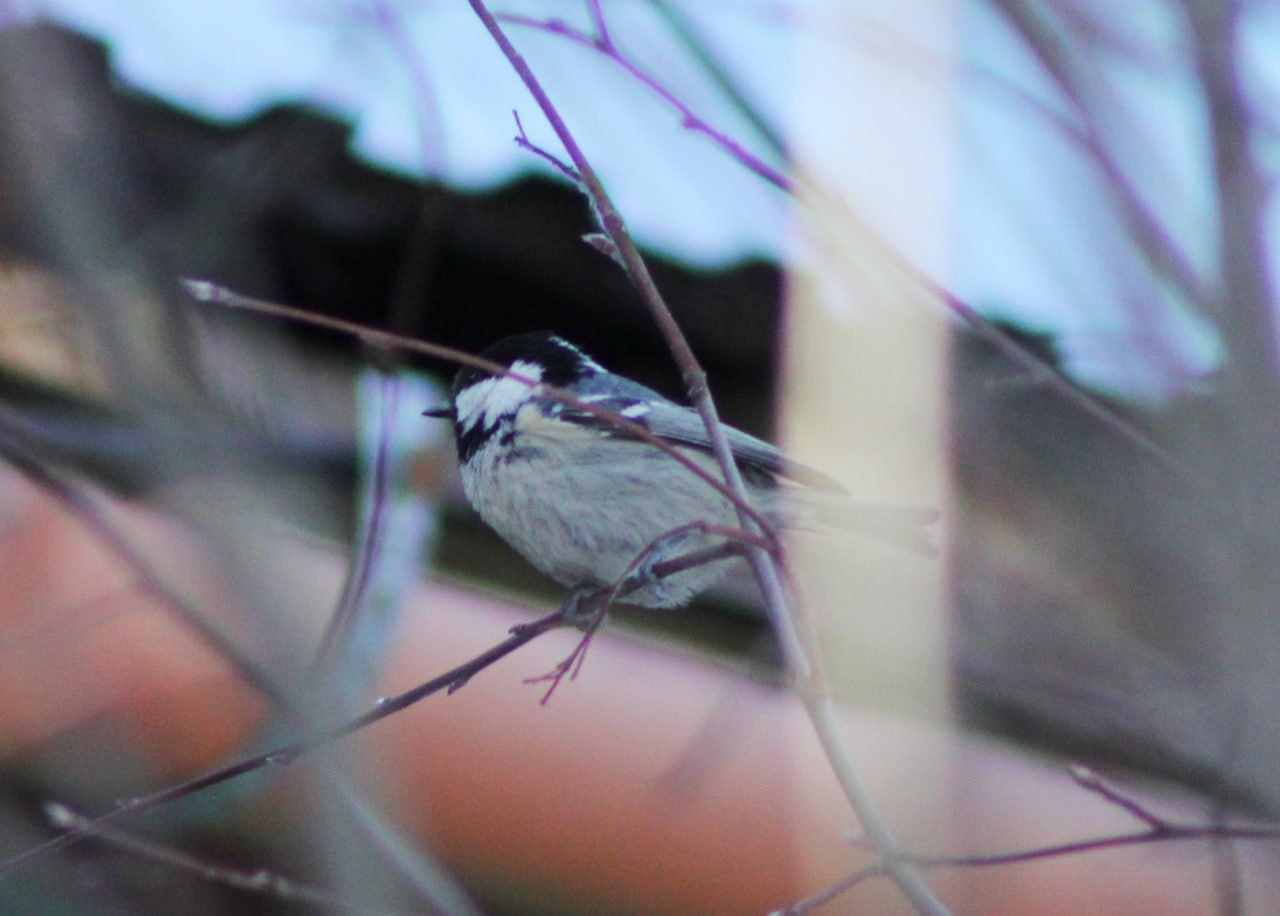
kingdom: Animalia
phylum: Chordata
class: Aves
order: Passeriformes
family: Paridae
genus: Periparus
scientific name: Periparus ater
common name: Coal tit
